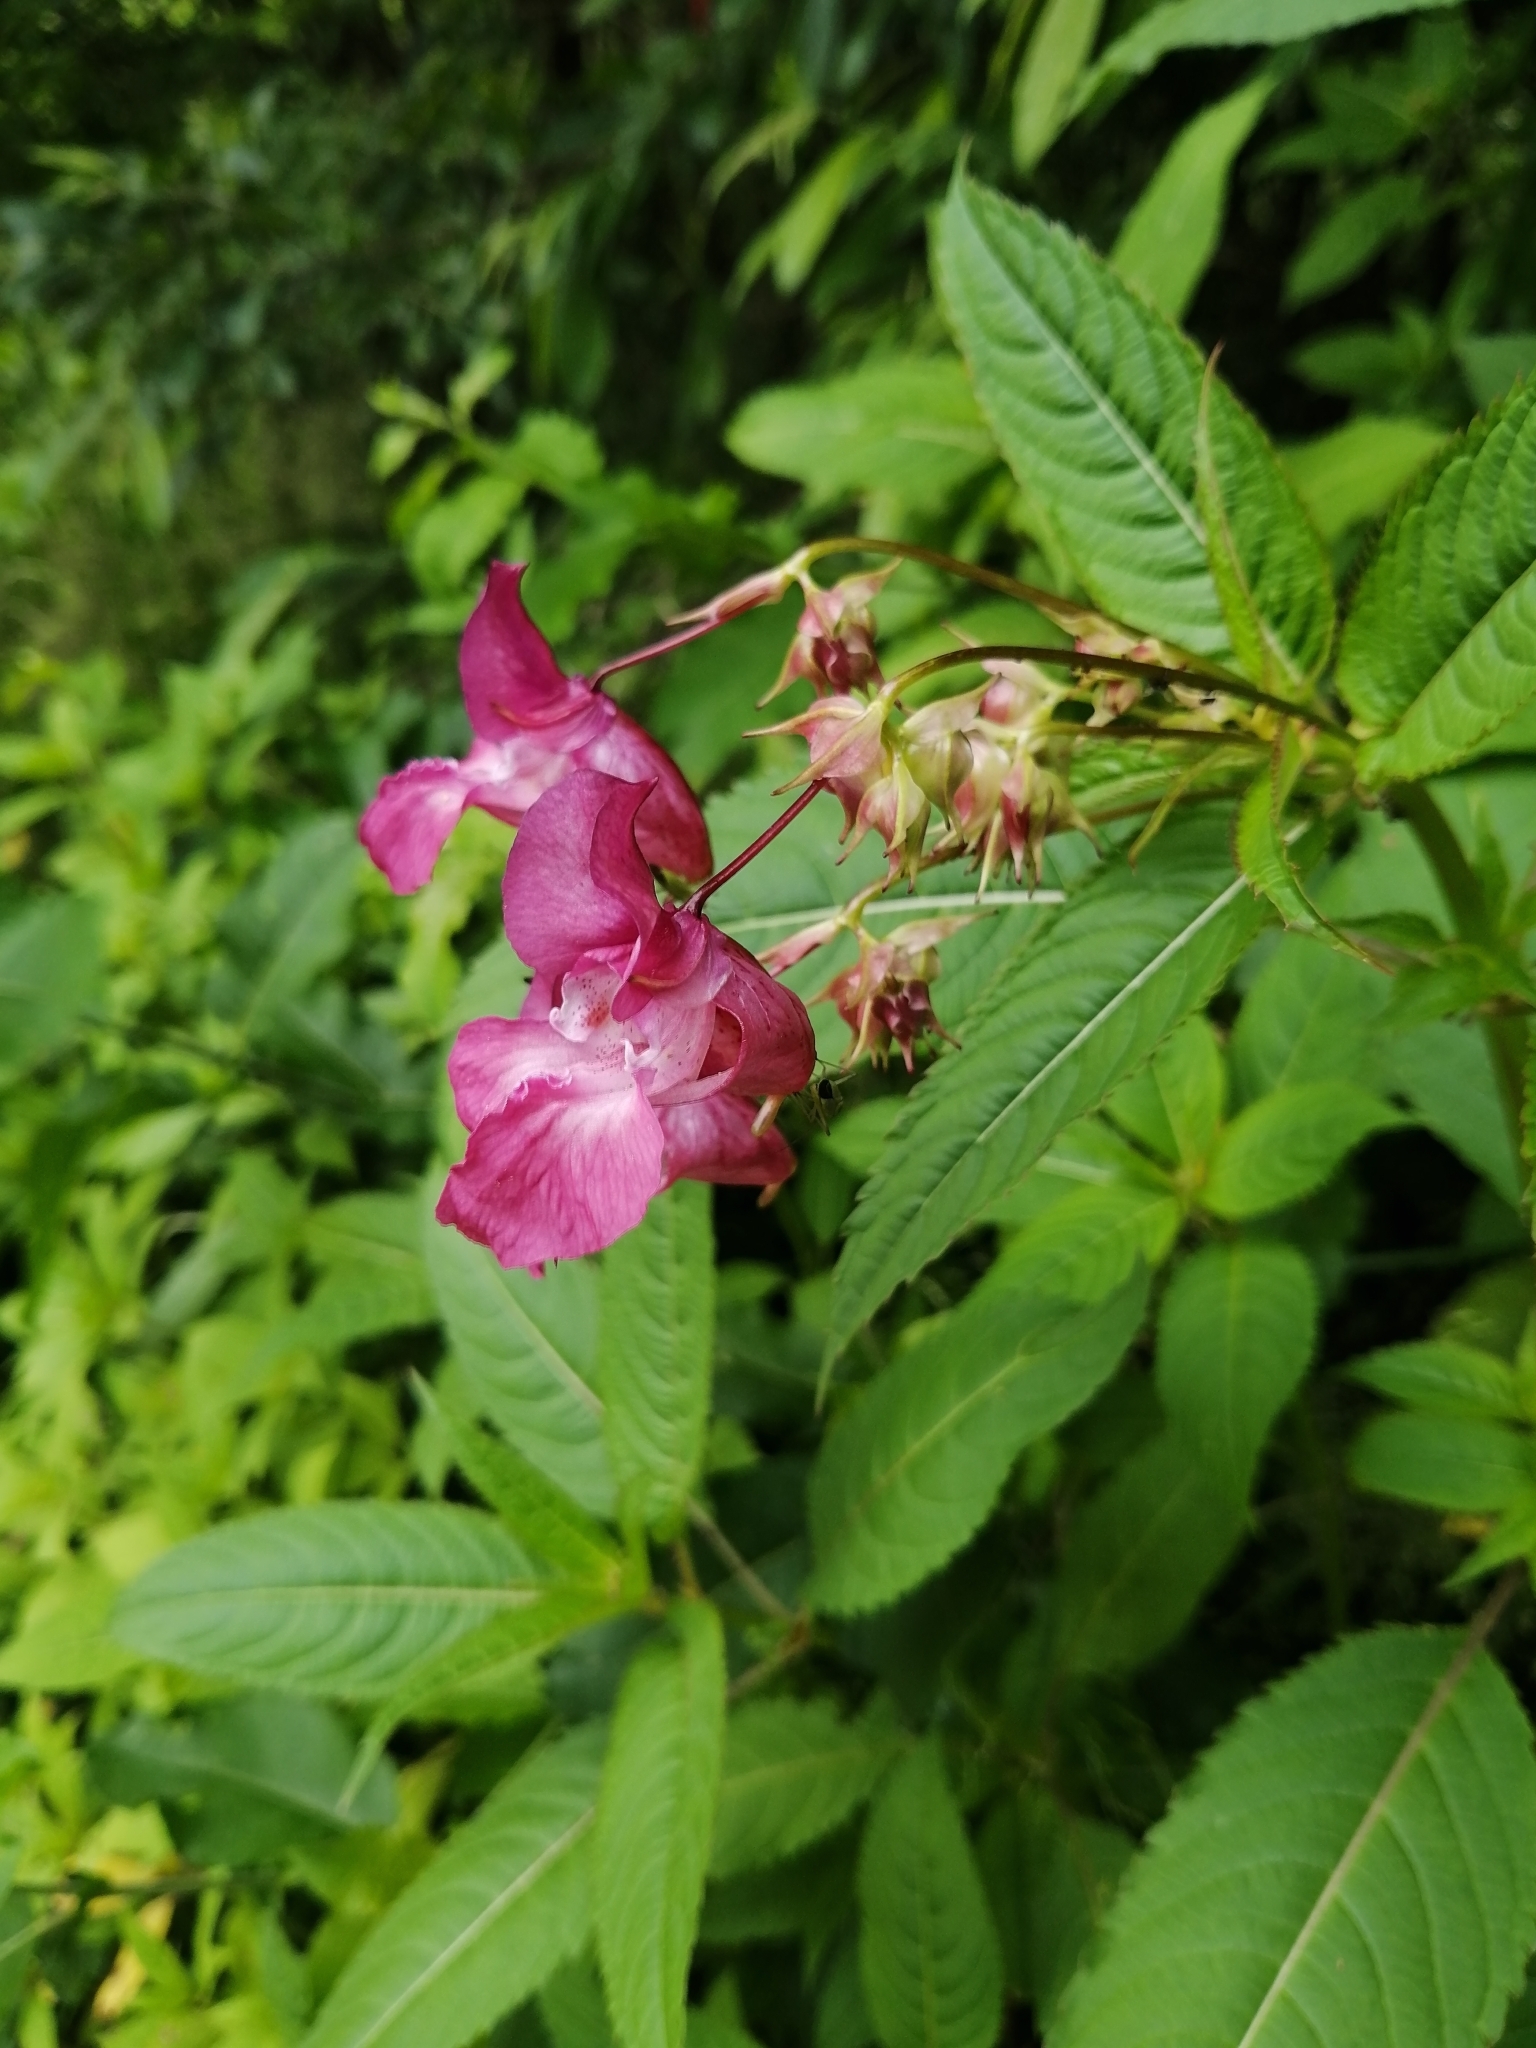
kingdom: Plantae
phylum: Tracheophyta
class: Magnoliopsida
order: Ericales
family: Balsaminaceae
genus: Impatiens
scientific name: Impatiens glandulifera
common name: Himalayan balsam
